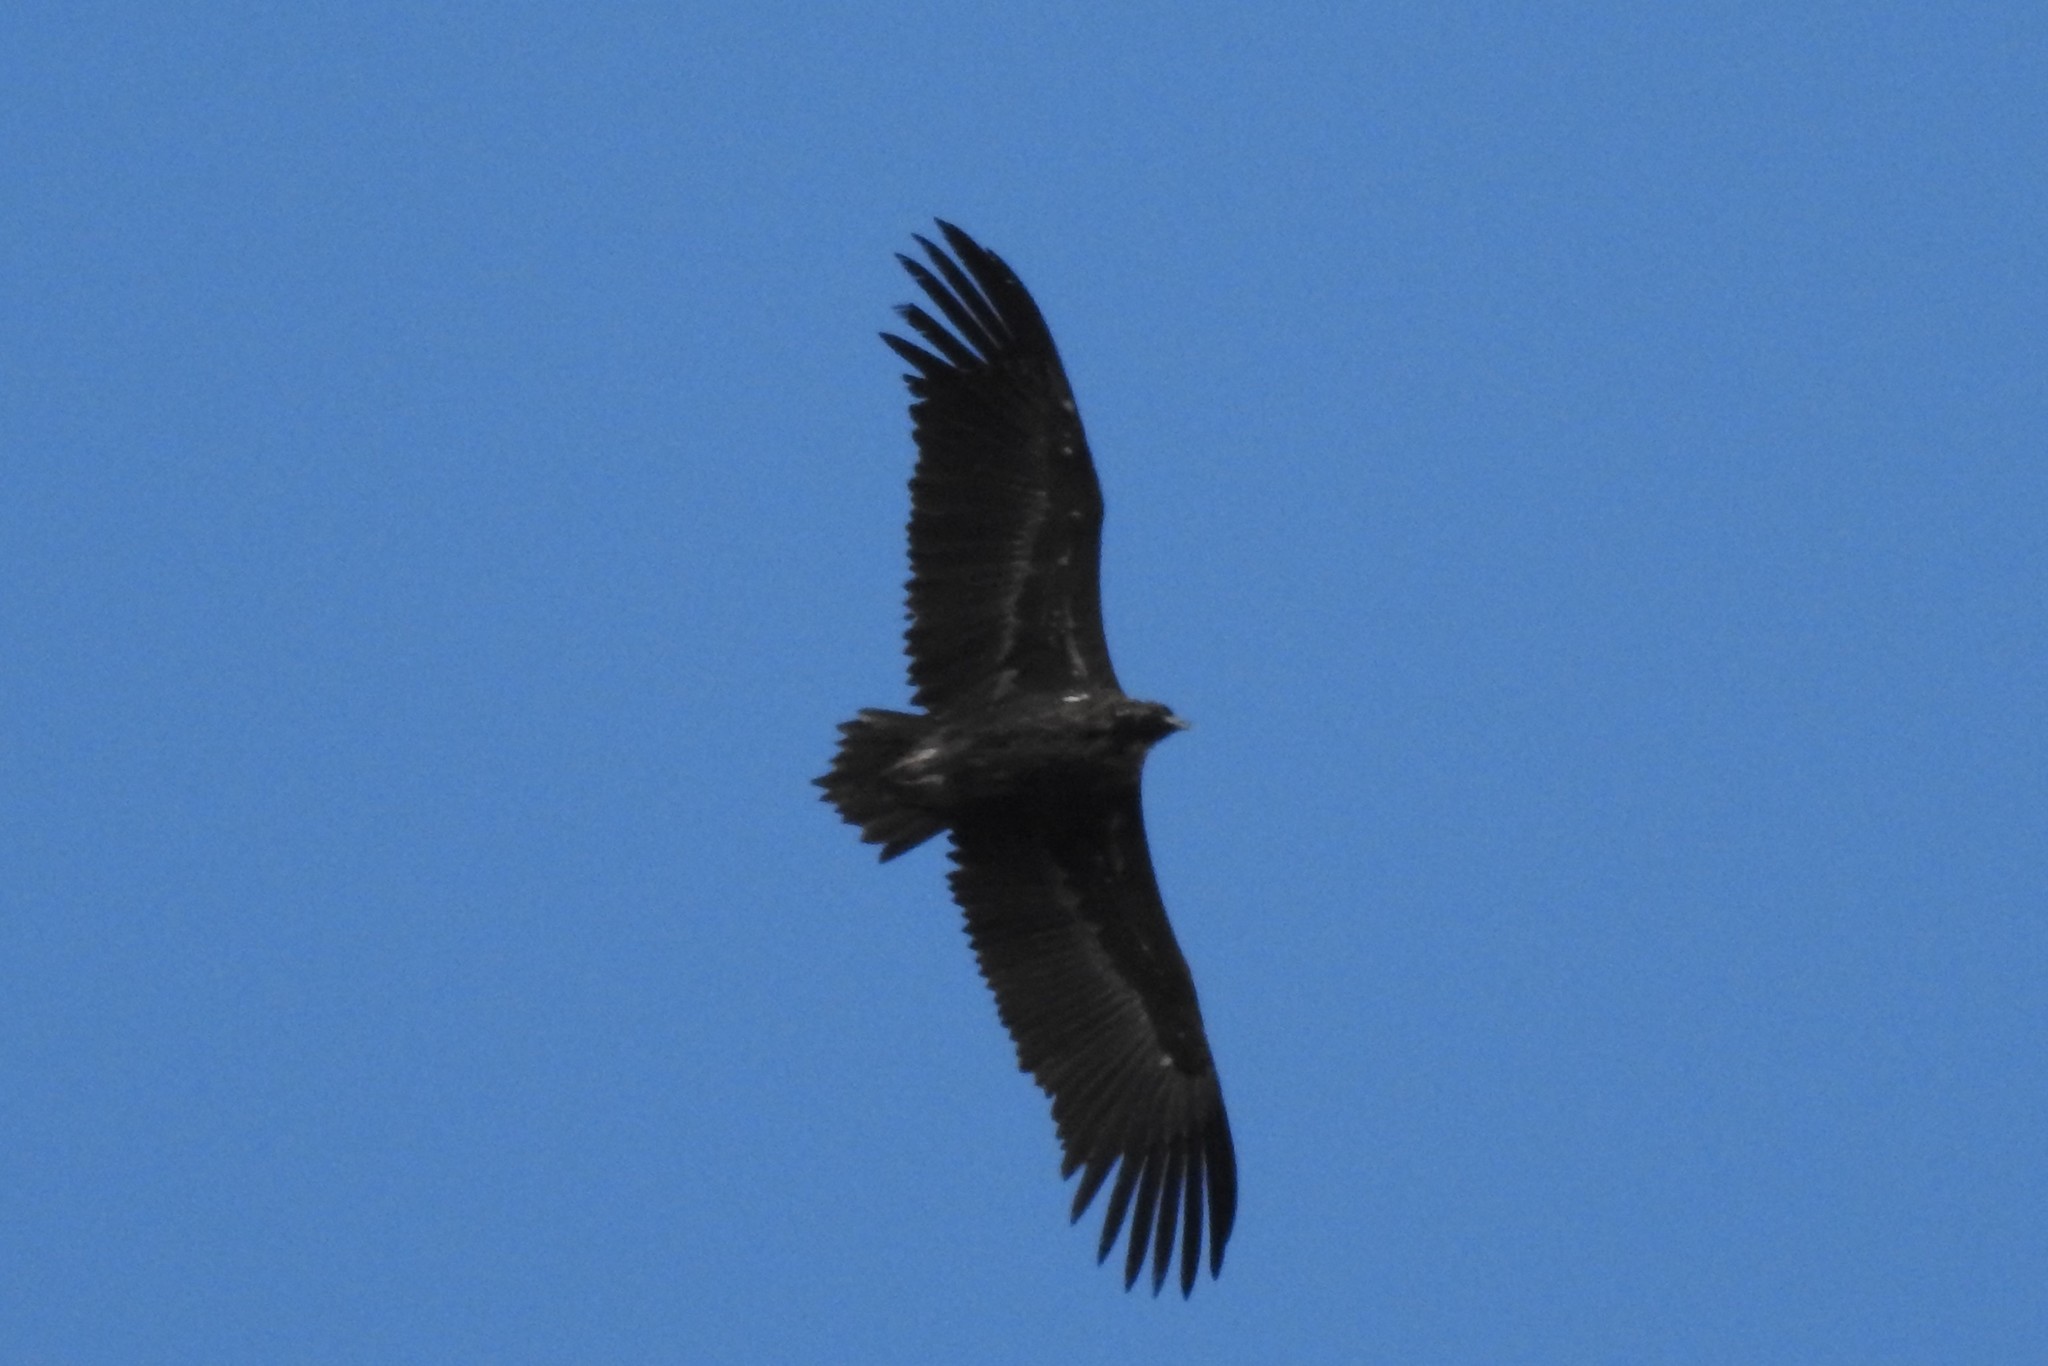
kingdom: Animalia
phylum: Chordata
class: Aves
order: Accipitriformes
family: Accipitridae
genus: Aegypius
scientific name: Aegypius monachus
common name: Cinereous vulture
